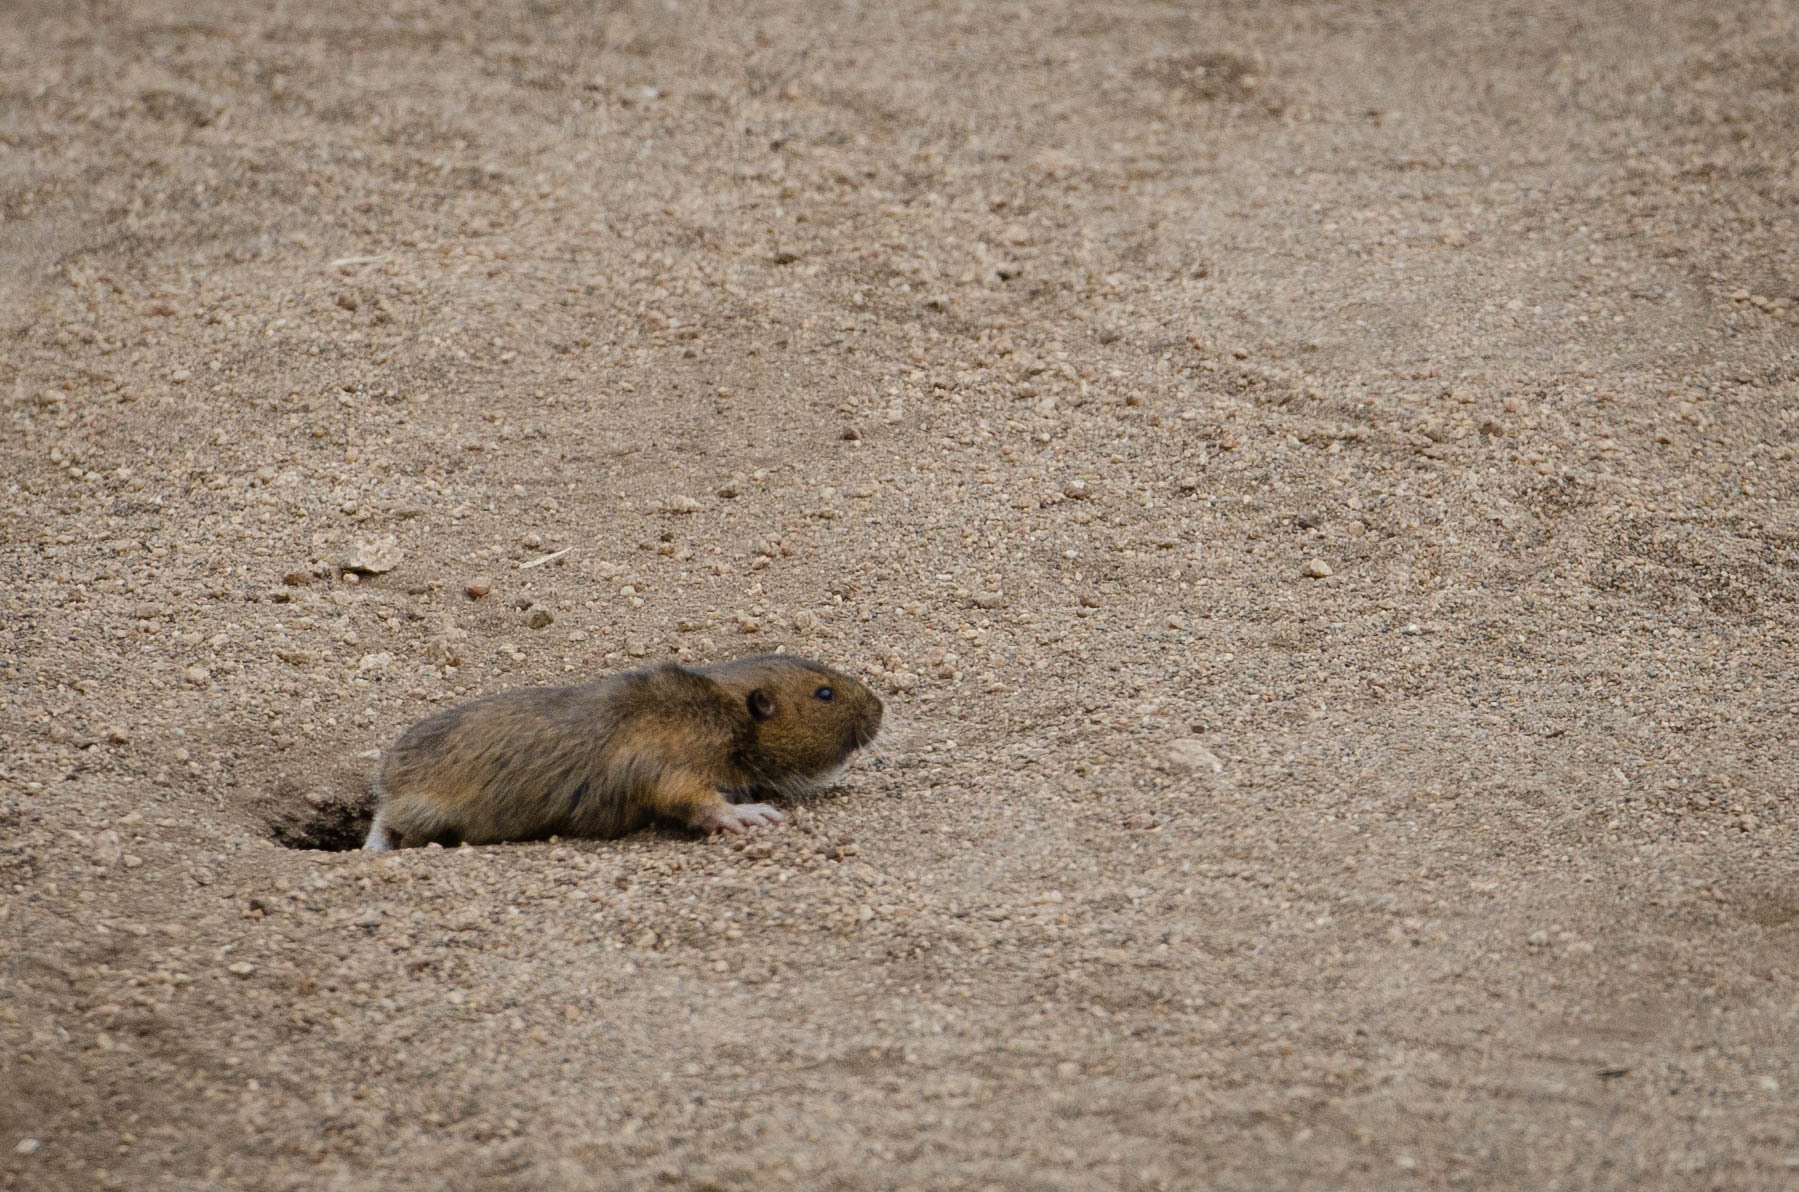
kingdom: Animalia
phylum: Chordata
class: Mammalia
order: Rodentia
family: Geomyidae
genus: Thomomys
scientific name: Thomomys bottae
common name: Botta's pocket gopher
